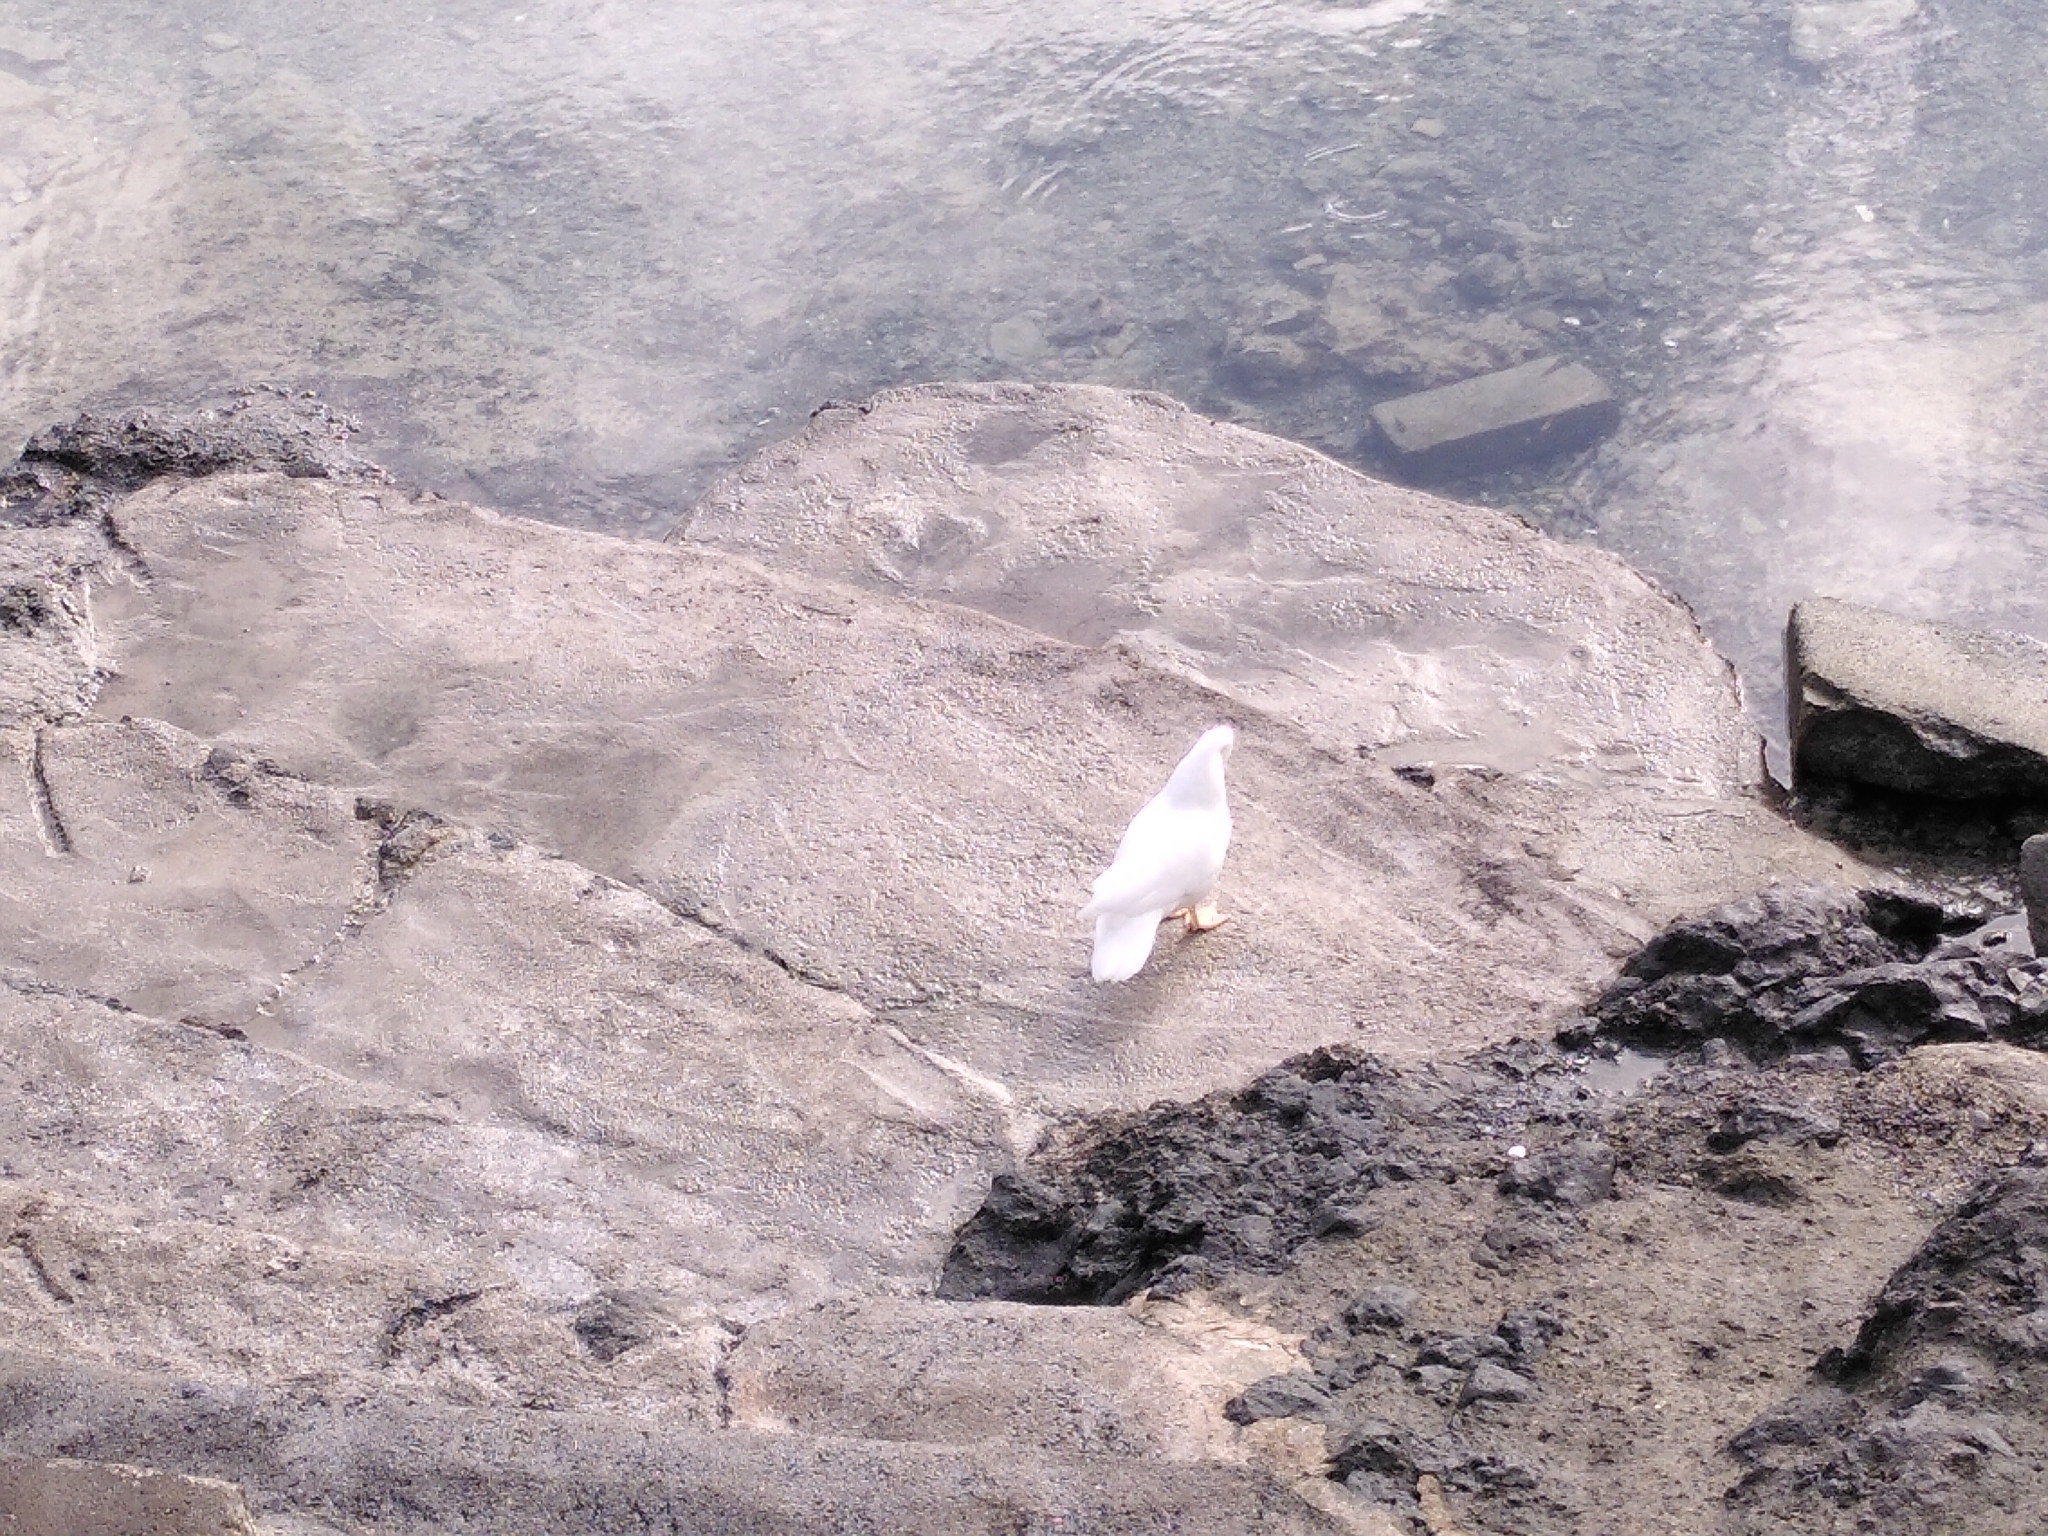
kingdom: Animalia
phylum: Chordata
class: Aves
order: Anseriformes
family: Anatidae
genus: Cairina
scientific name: Cairina moschata
